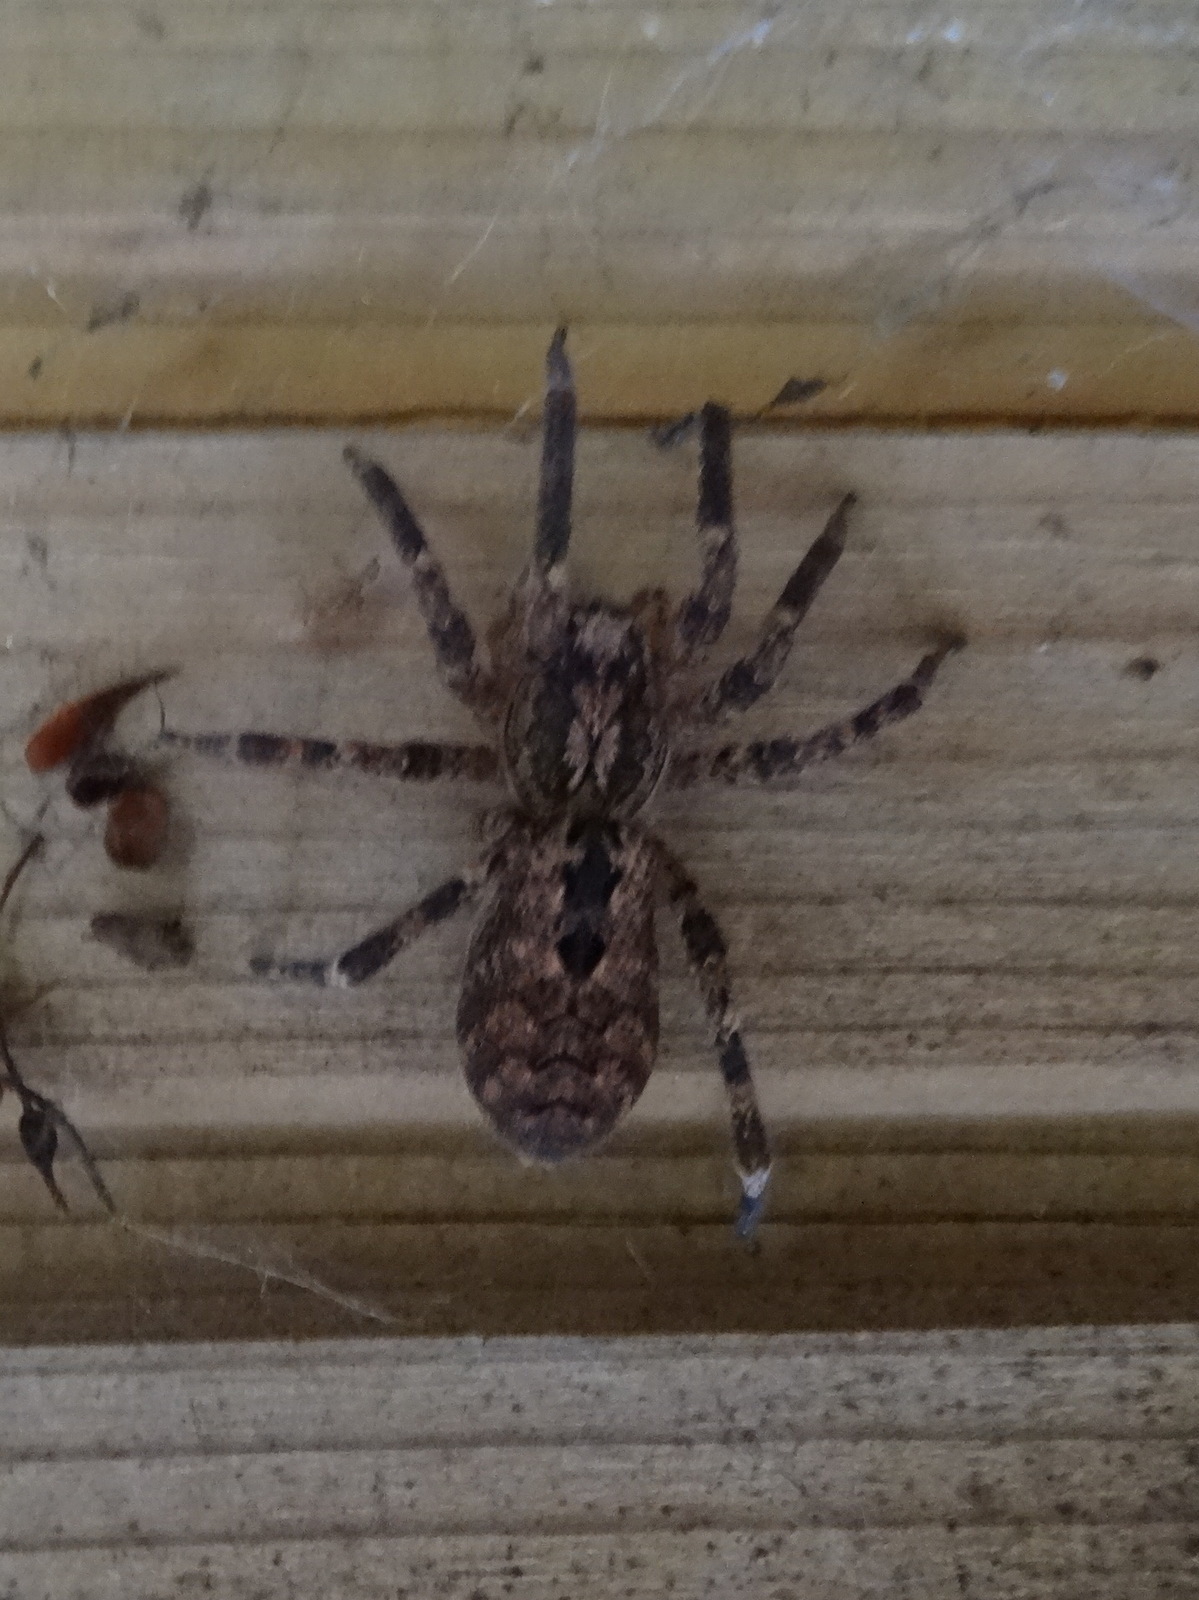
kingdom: Animalia
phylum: Arthropoda
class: Arachnida
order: Araneae
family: Zoropsidae
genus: Zoropsis
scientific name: Zoropsis spinimana
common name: Zoropsid spider
